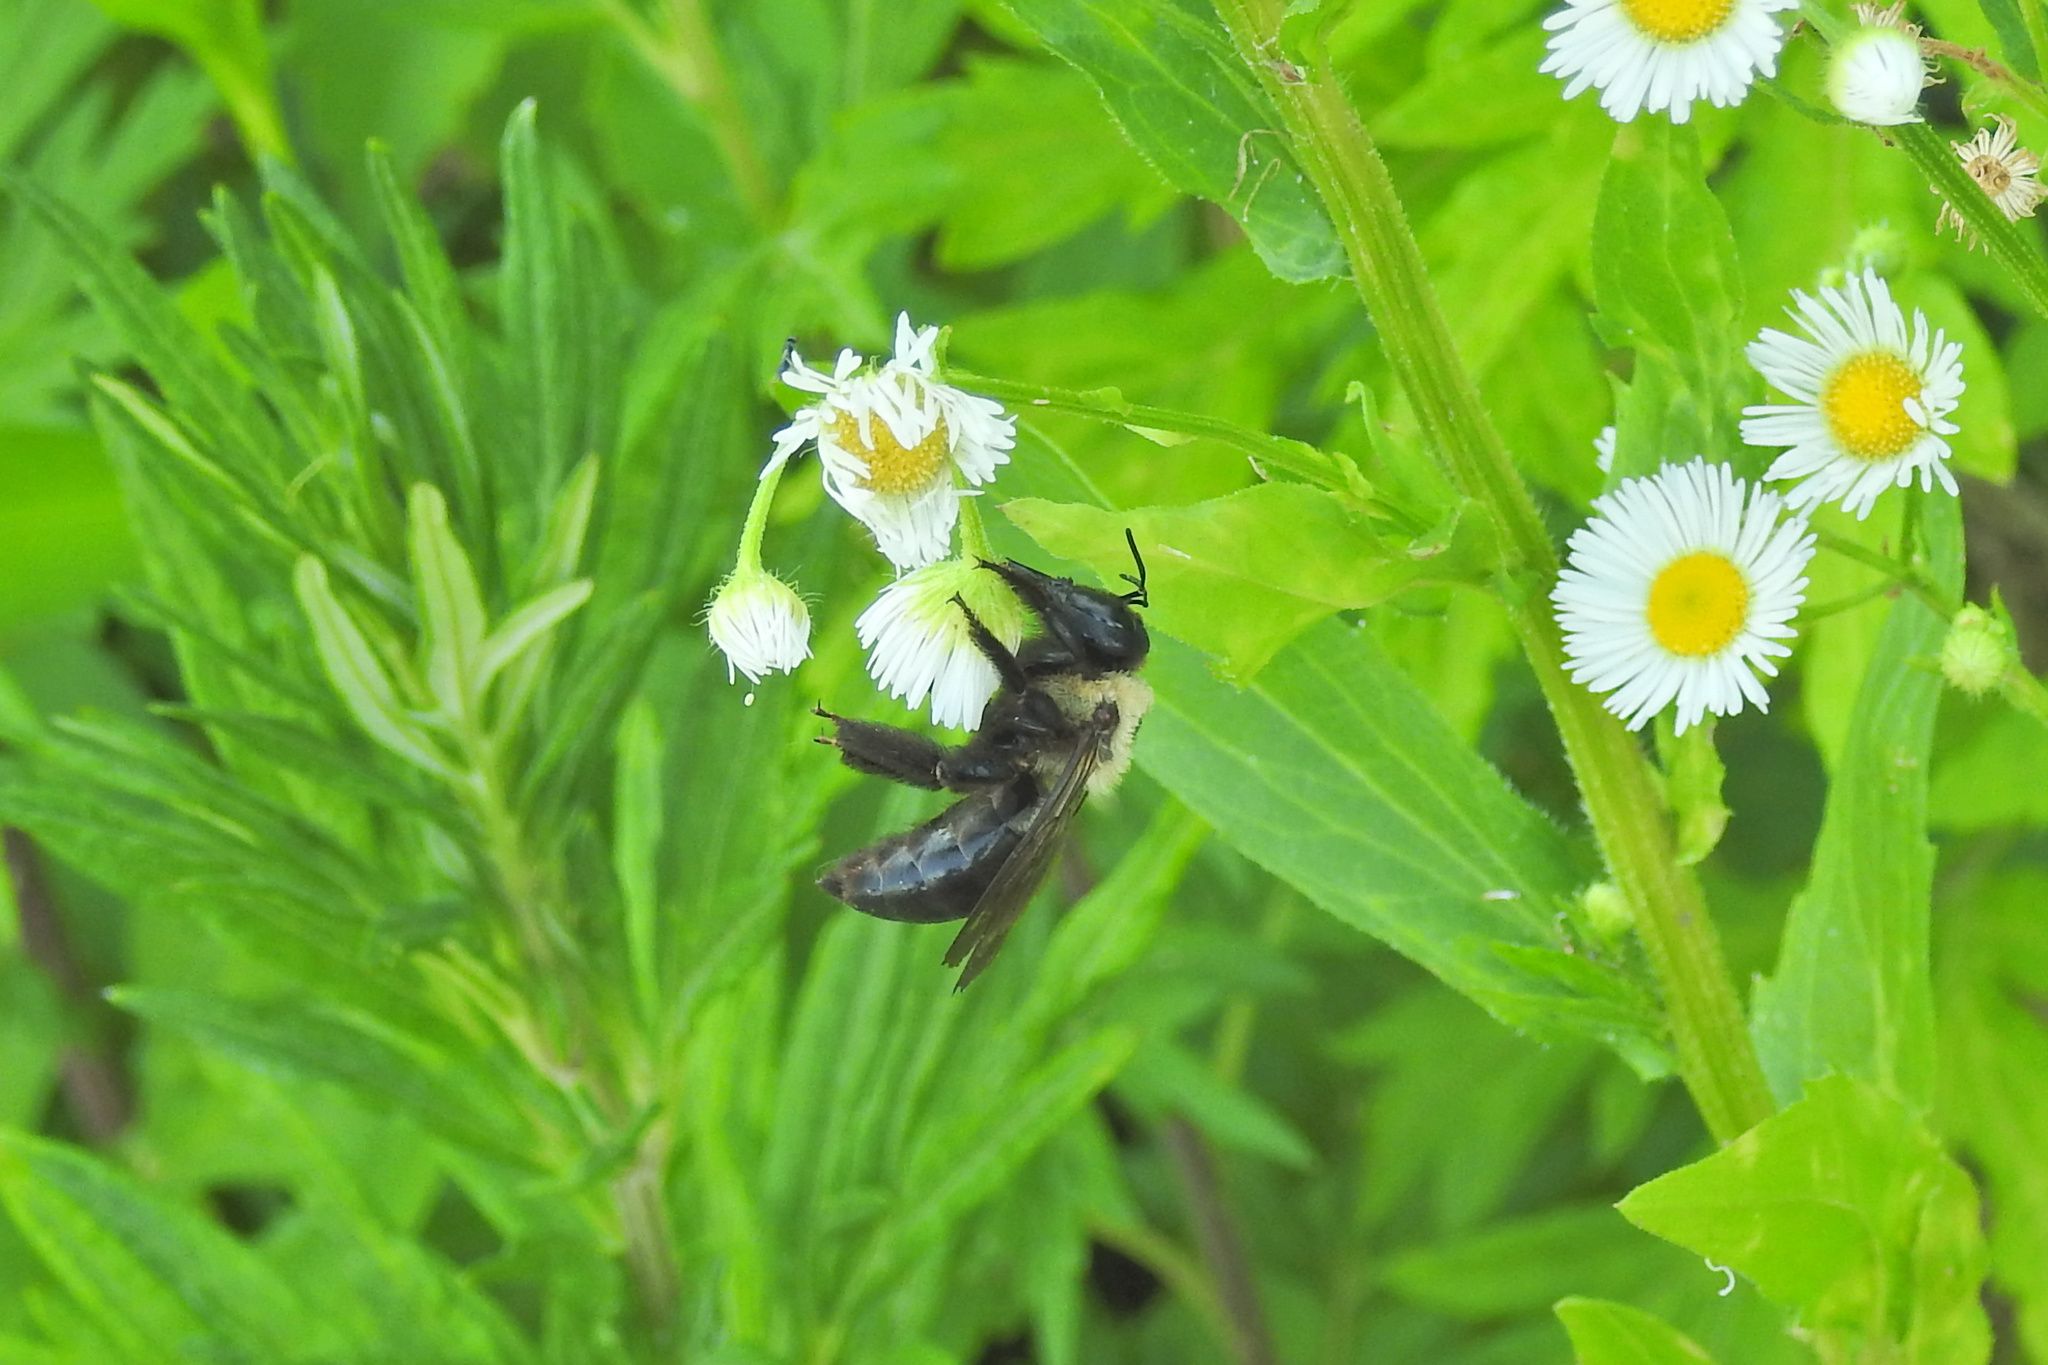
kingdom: Animalia
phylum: Arthropoda
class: Insecta
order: Hymenoptera
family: Apidae
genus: Xylocopa
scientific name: Xylocopa virginica
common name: Carpenter bee
